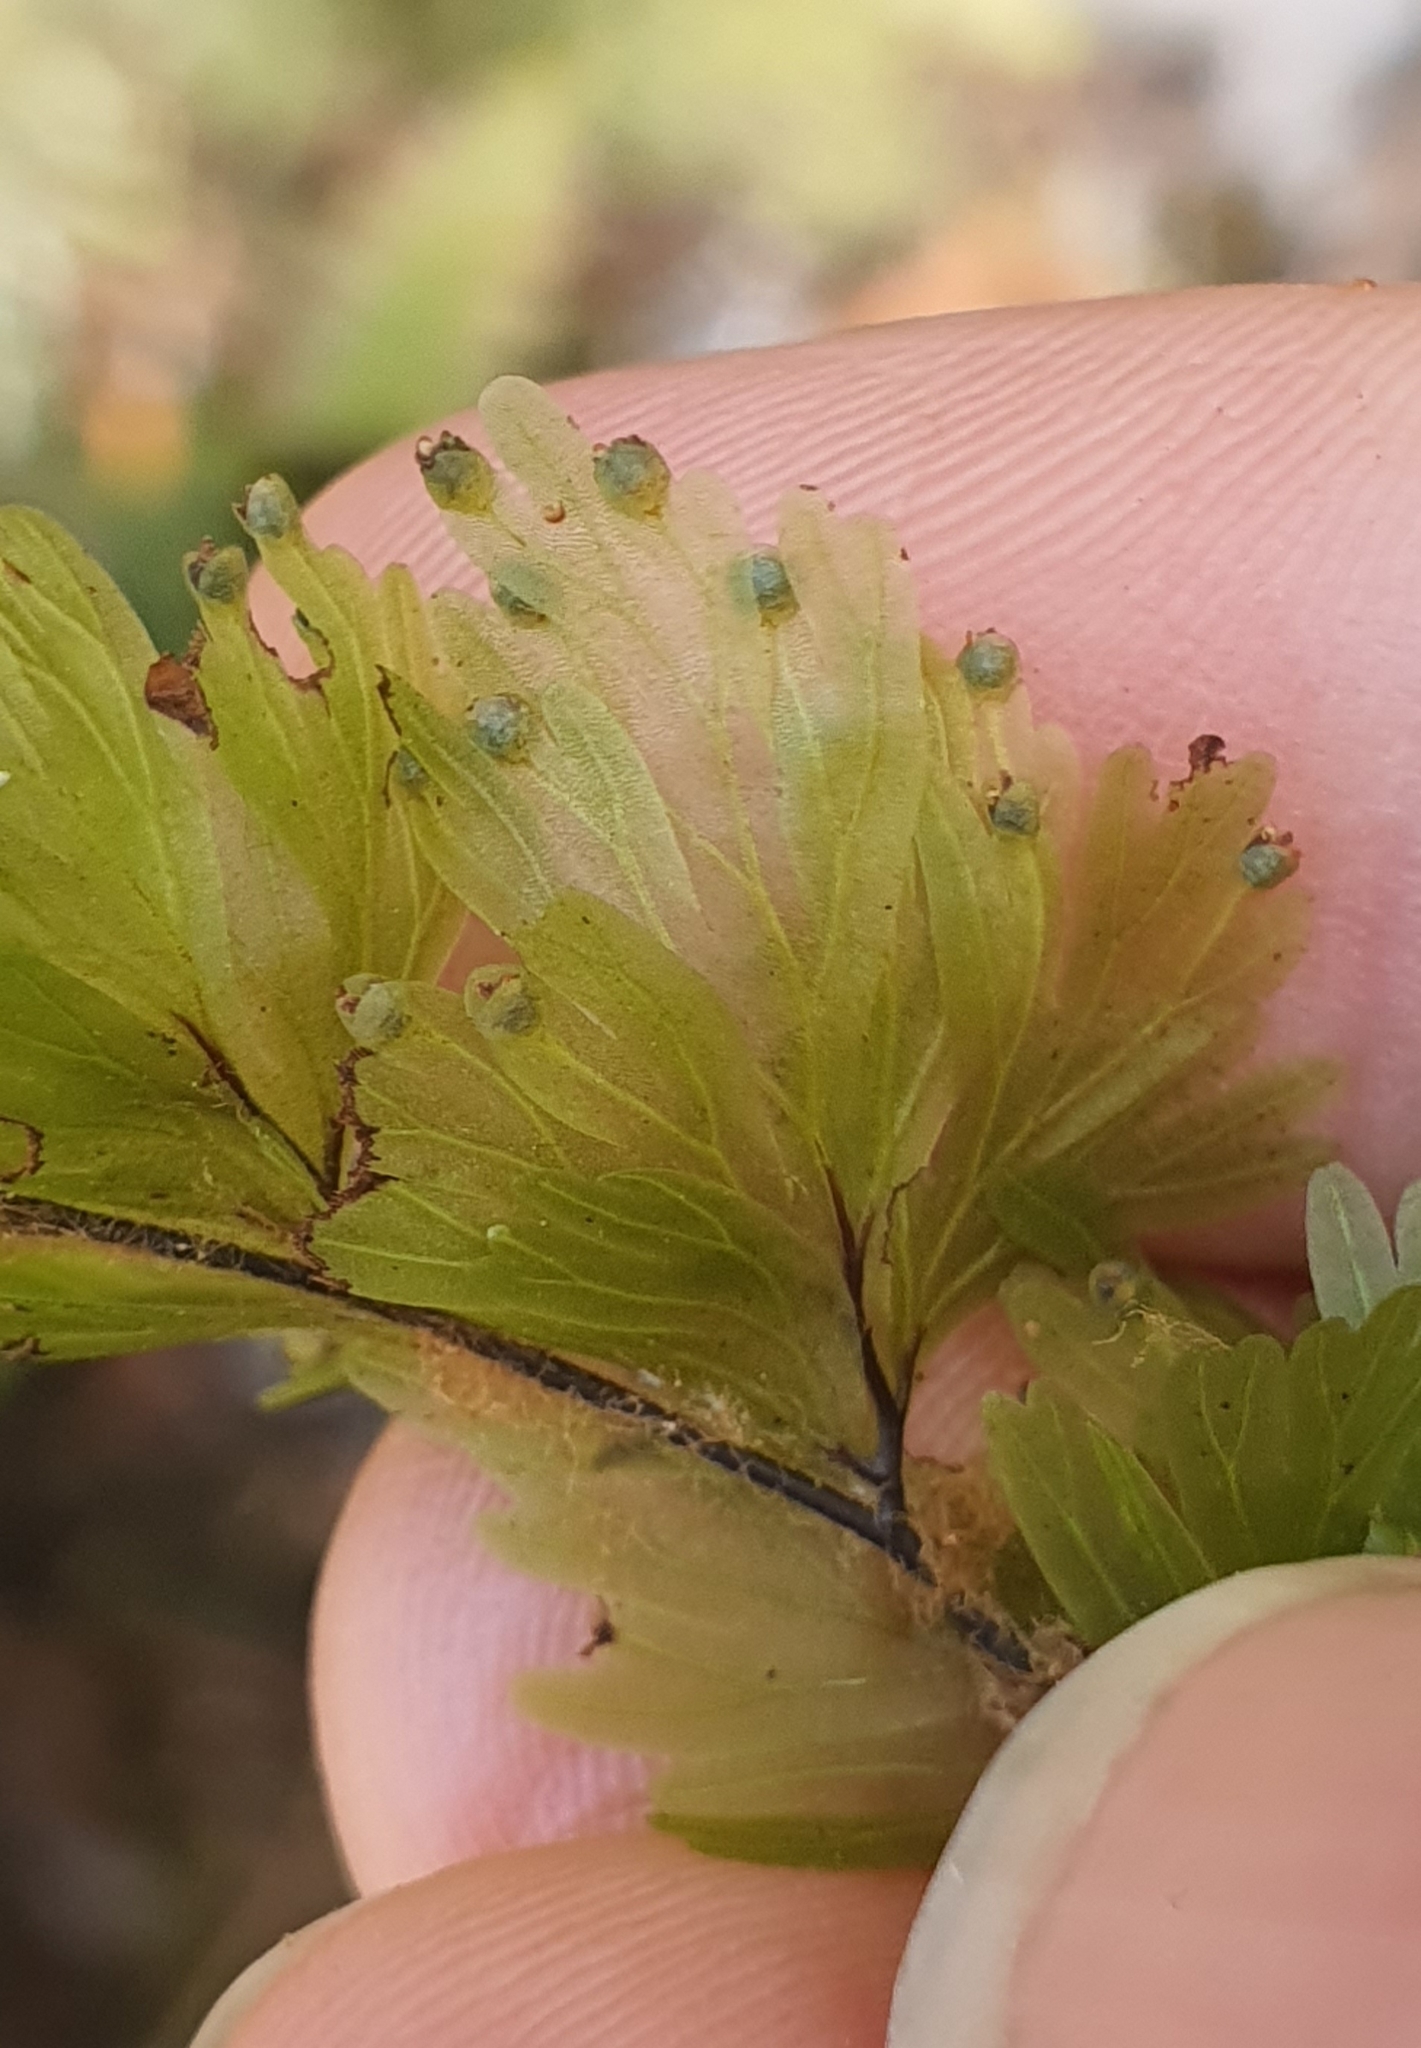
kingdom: Plantae
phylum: Tracheophyta
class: Polypodiopsida
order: Hymenophyllales
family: Hymenophyllaceae
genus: Hymenophyllum
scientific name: Hymenophyllum flabellatum
